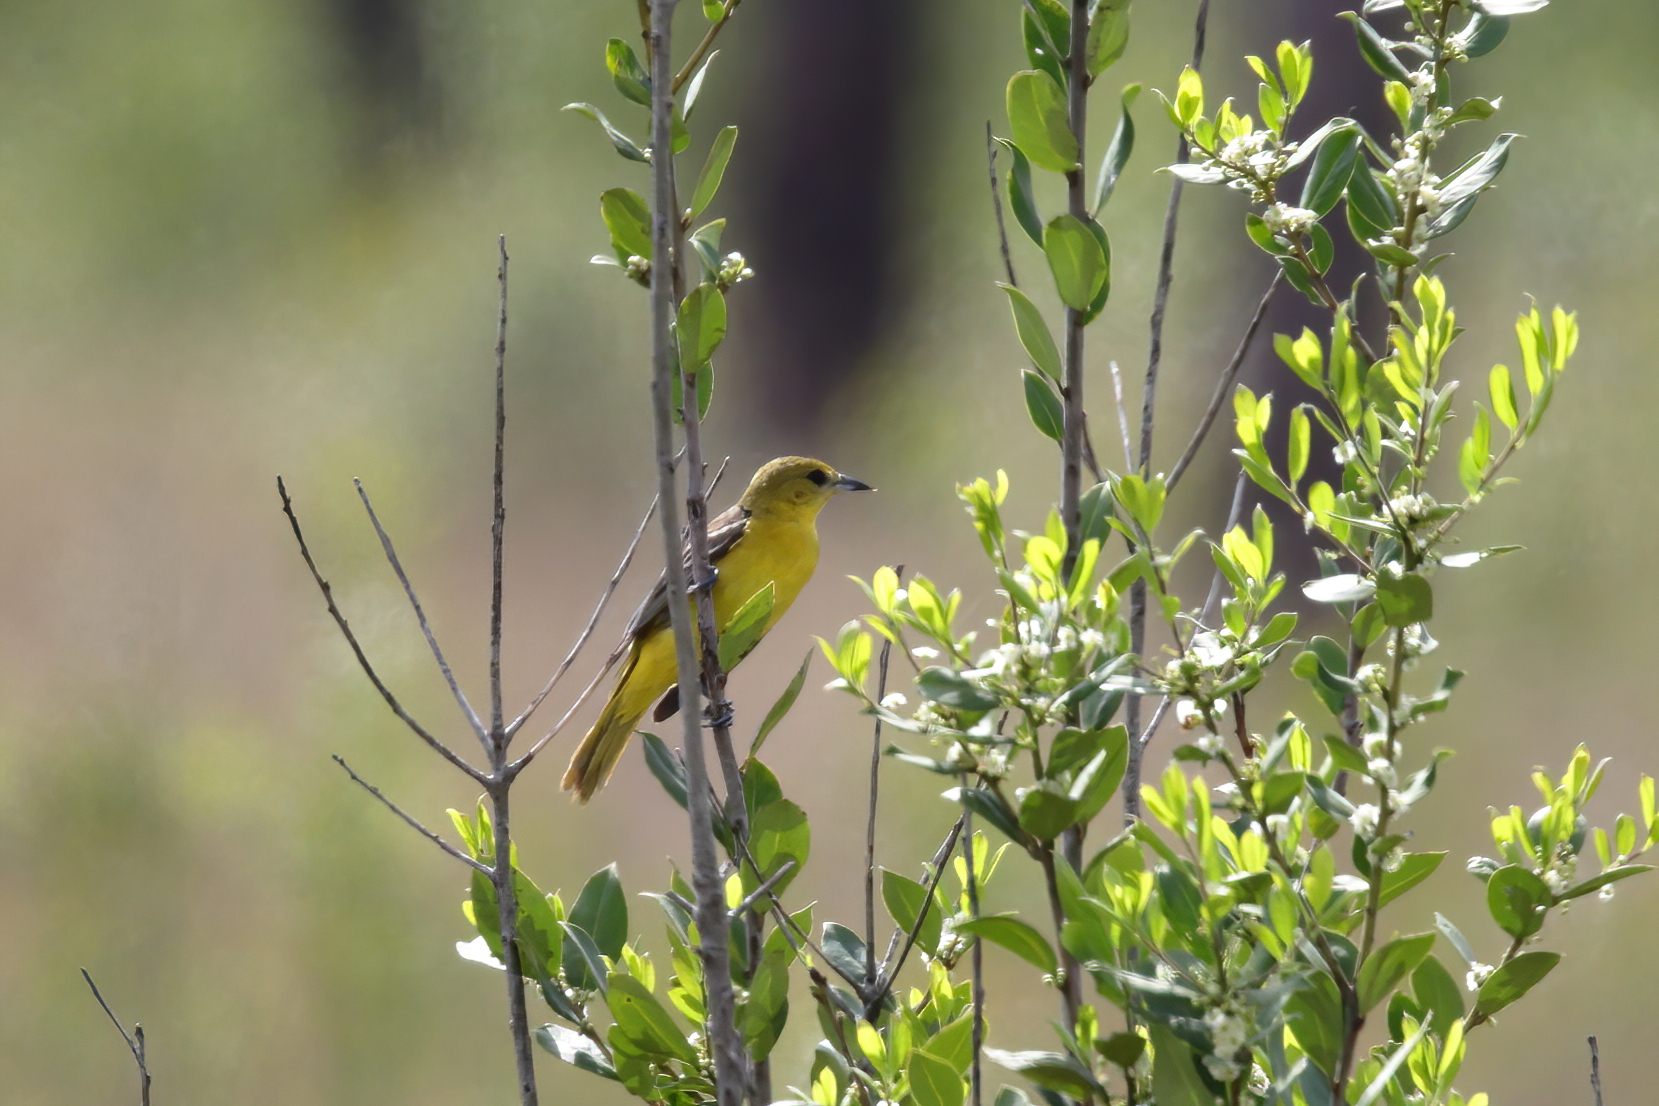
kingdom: Animalia
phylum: Chordata
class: Aves
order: Passeriformes
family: Icteridae
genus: Icterus
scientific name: Icterus spurius
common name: Orchard oriole
